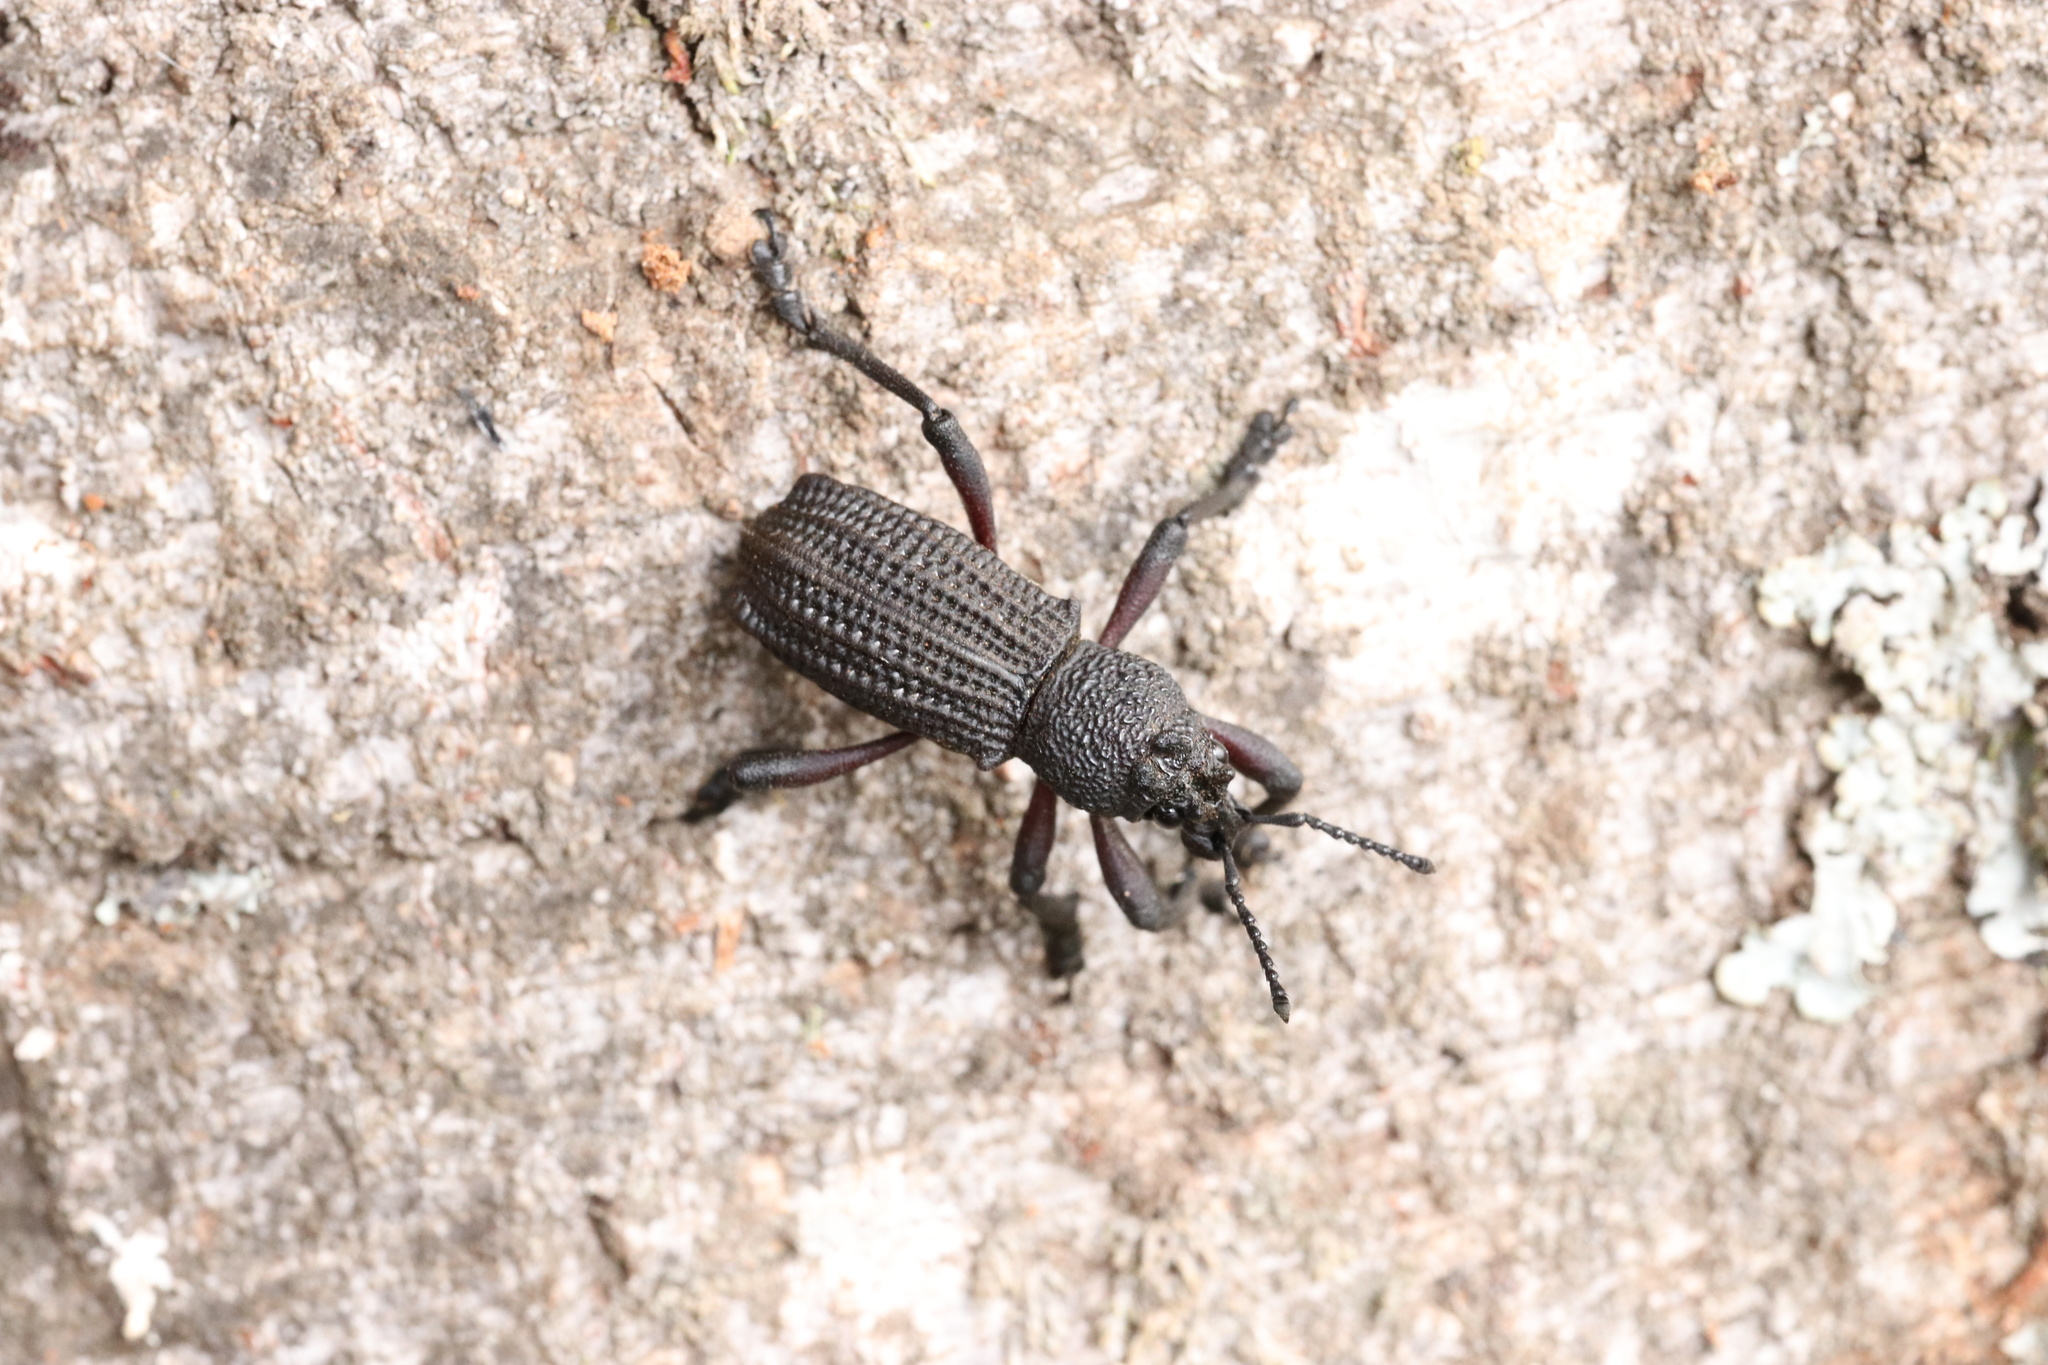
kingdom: Animalia
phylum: Arthropoda
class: Insecta
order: Coleoptera
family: Curculionidae
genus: Aegorhinus
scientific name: Aegorhinus
